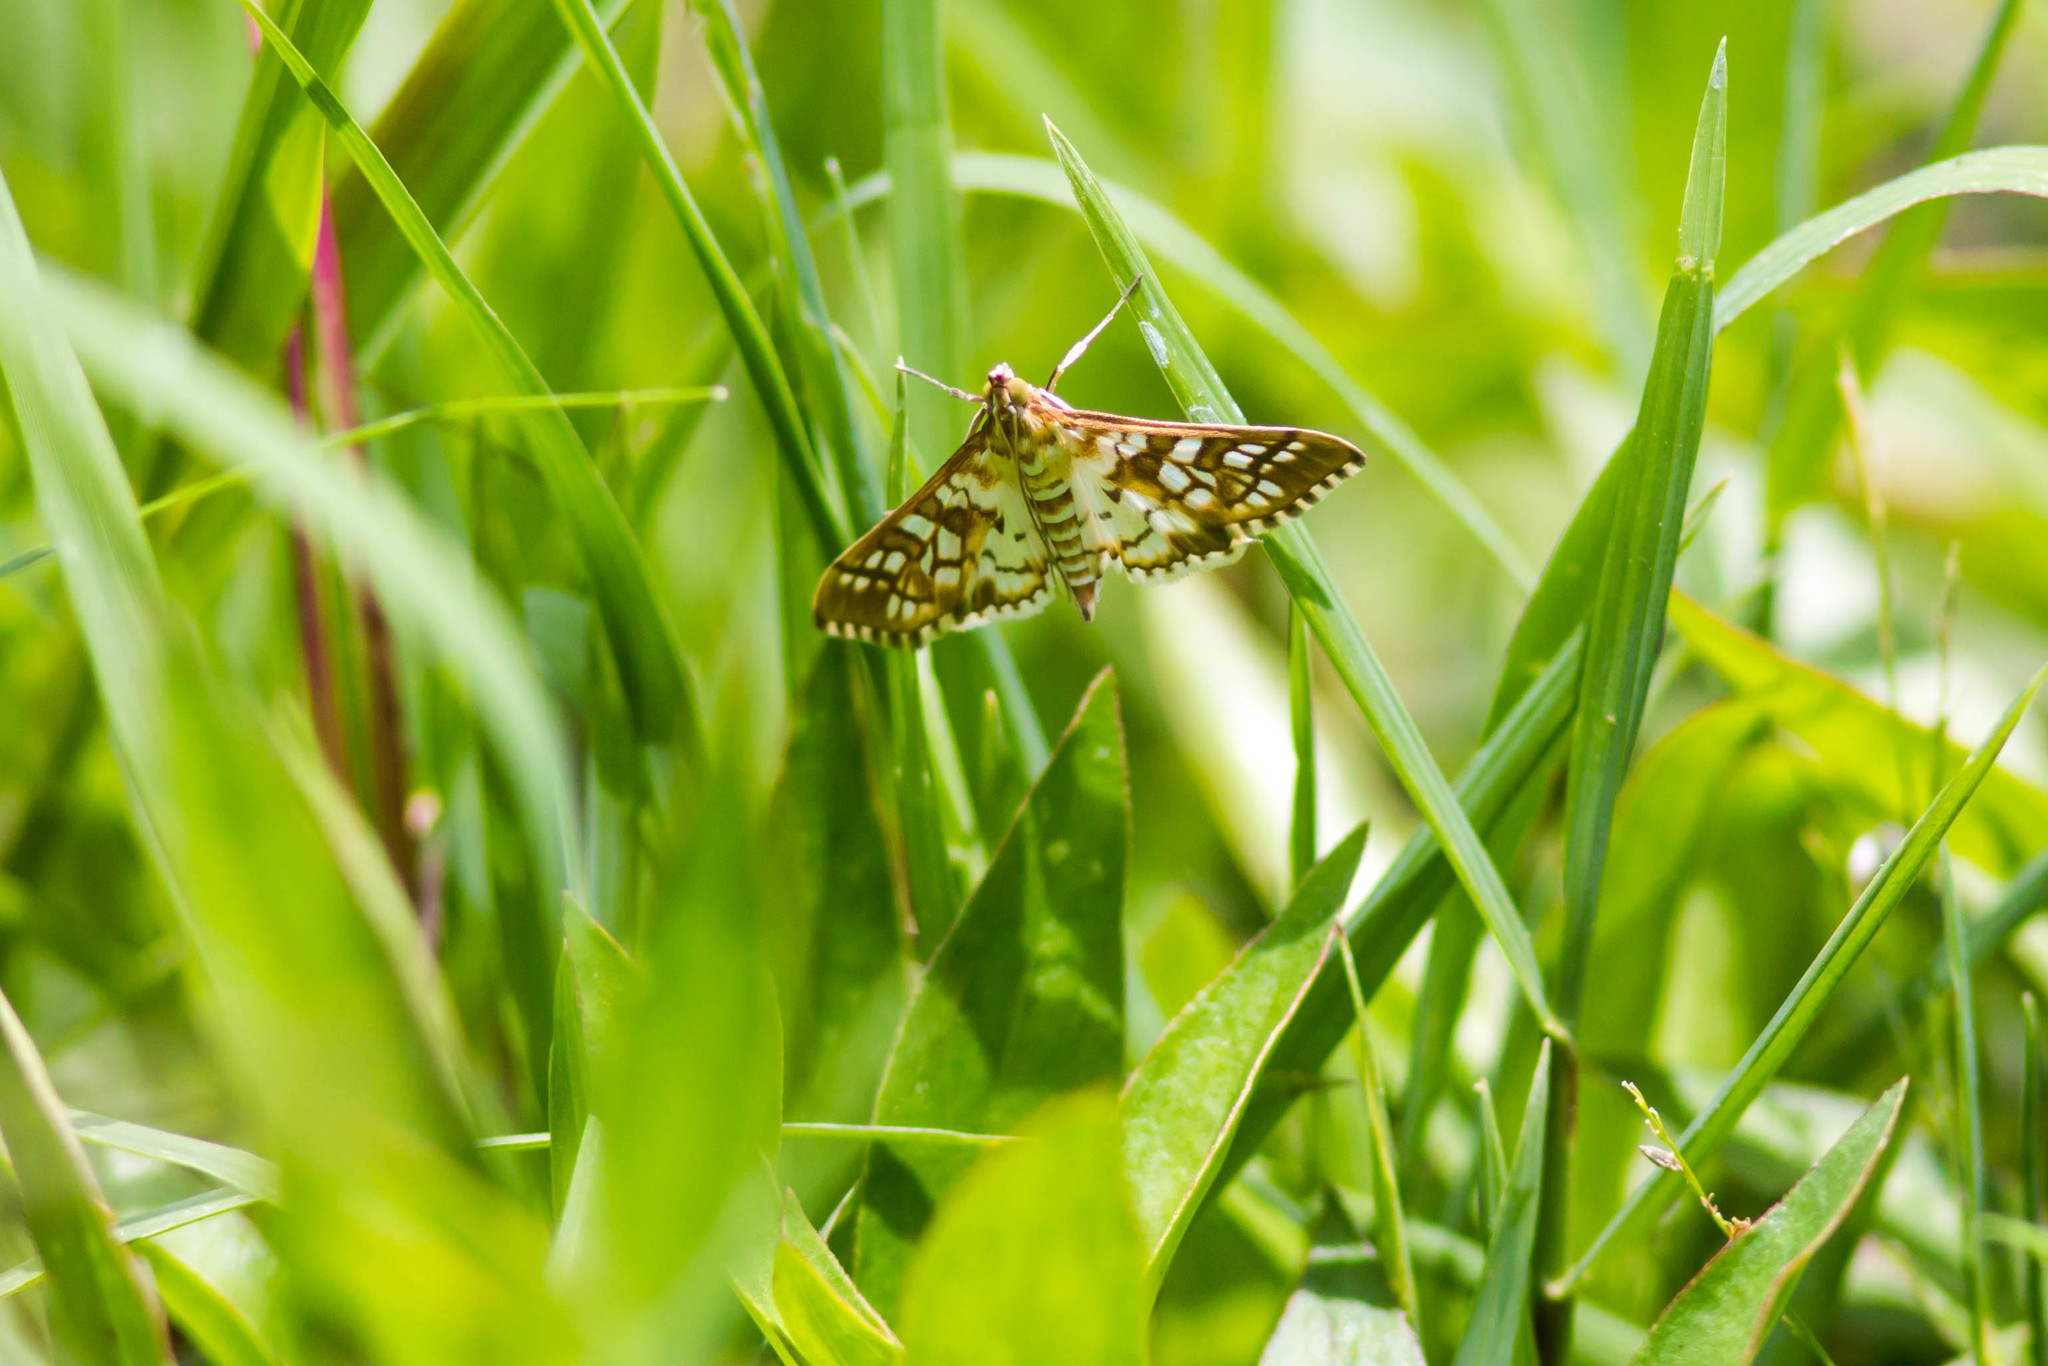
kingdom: Animalia
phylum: Arthropoda
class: Insecta
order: Lepidoptera
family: Crambidae
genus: Epipagis
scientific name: Epipagis fenestralis
